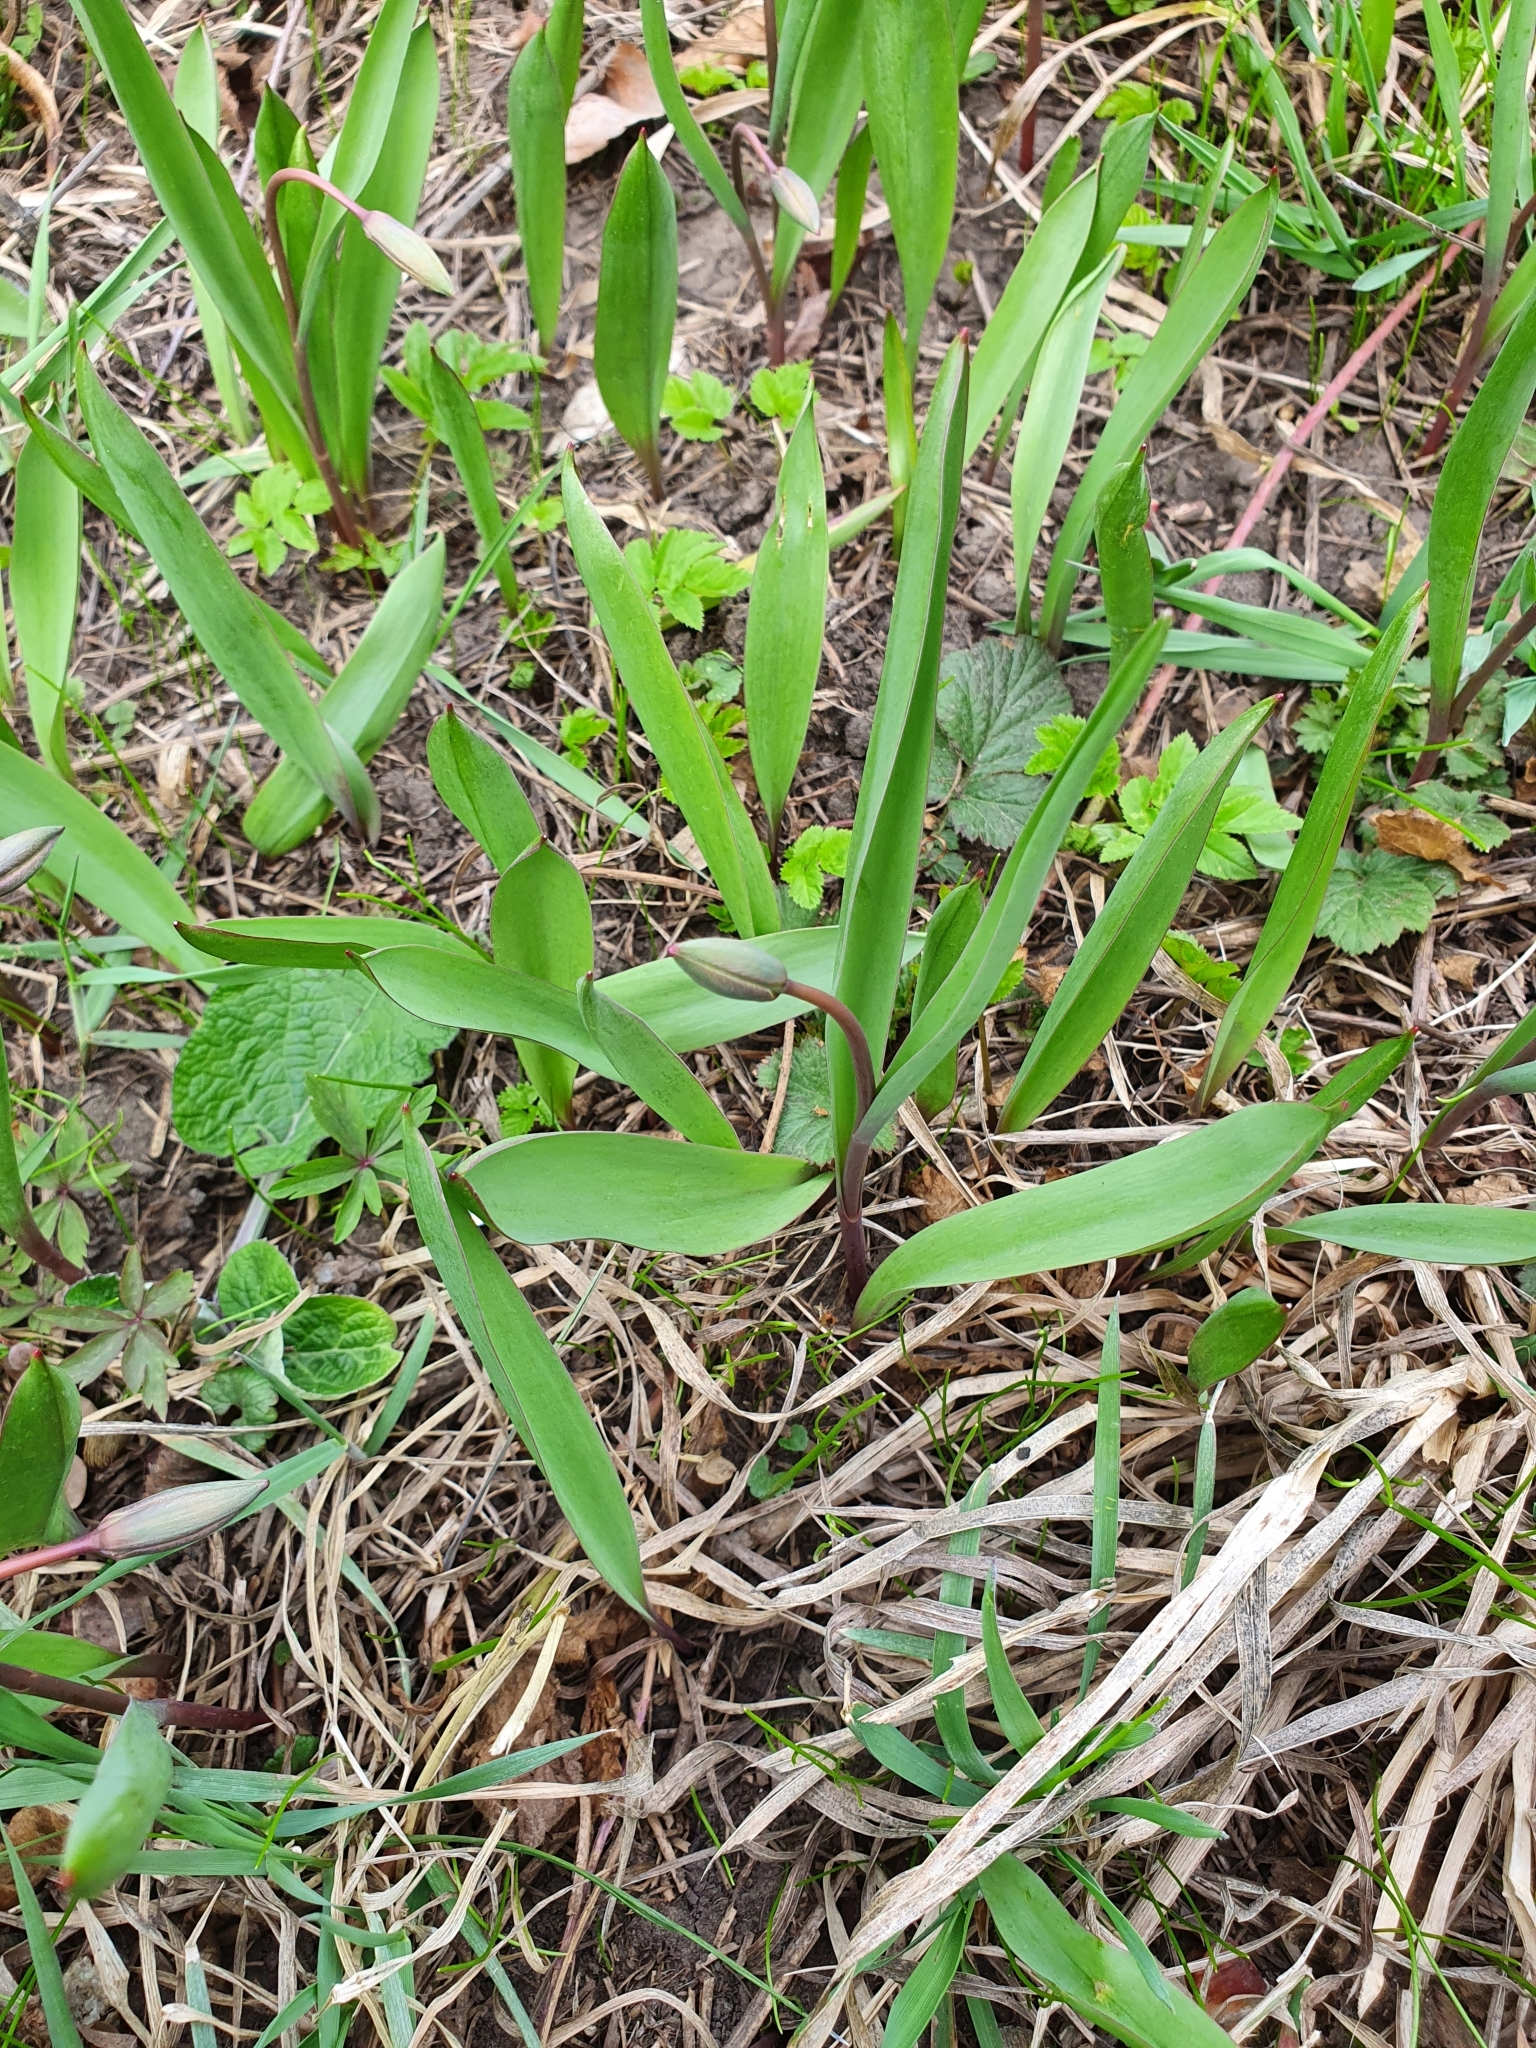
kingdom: Plantae
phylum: Tracheophyta
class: Liliopsida
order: Liliales
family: Liliaceae
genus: Tulipa
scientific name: Tulipa sylvestris
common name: Wild tulip
